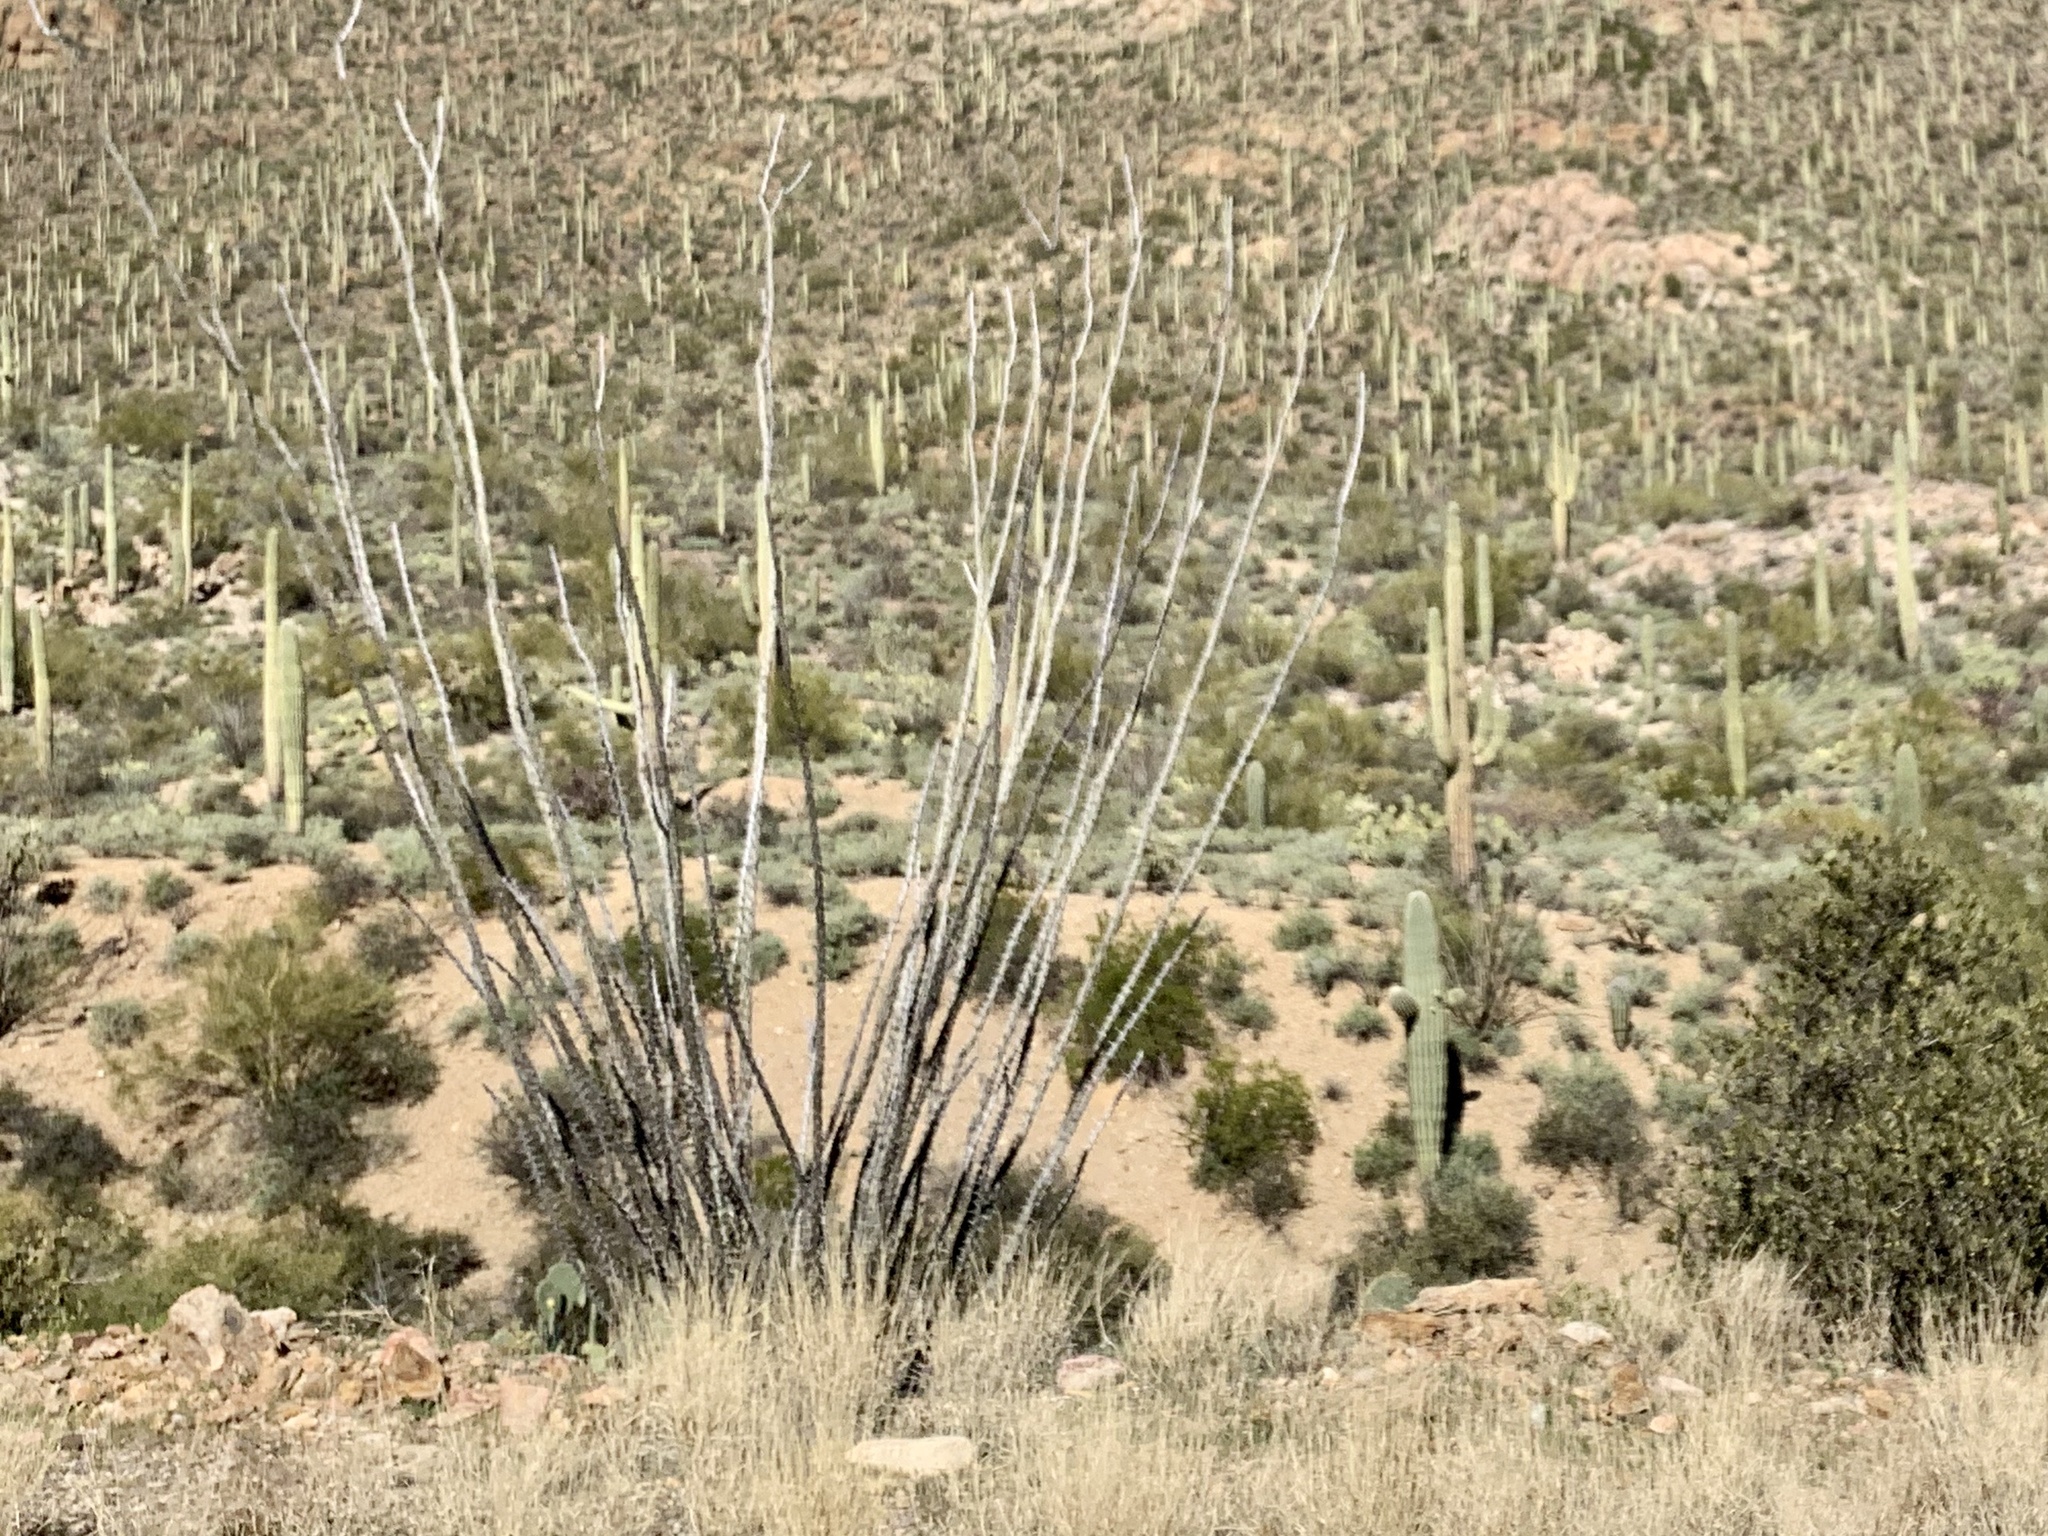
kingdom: Plantae
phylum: Tracheophyta
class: Magnoliopsida
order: Ericales
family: Fouquieriaceae
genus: Fouquieria
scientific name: Fouquieria splendens
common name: Vine-cactus
